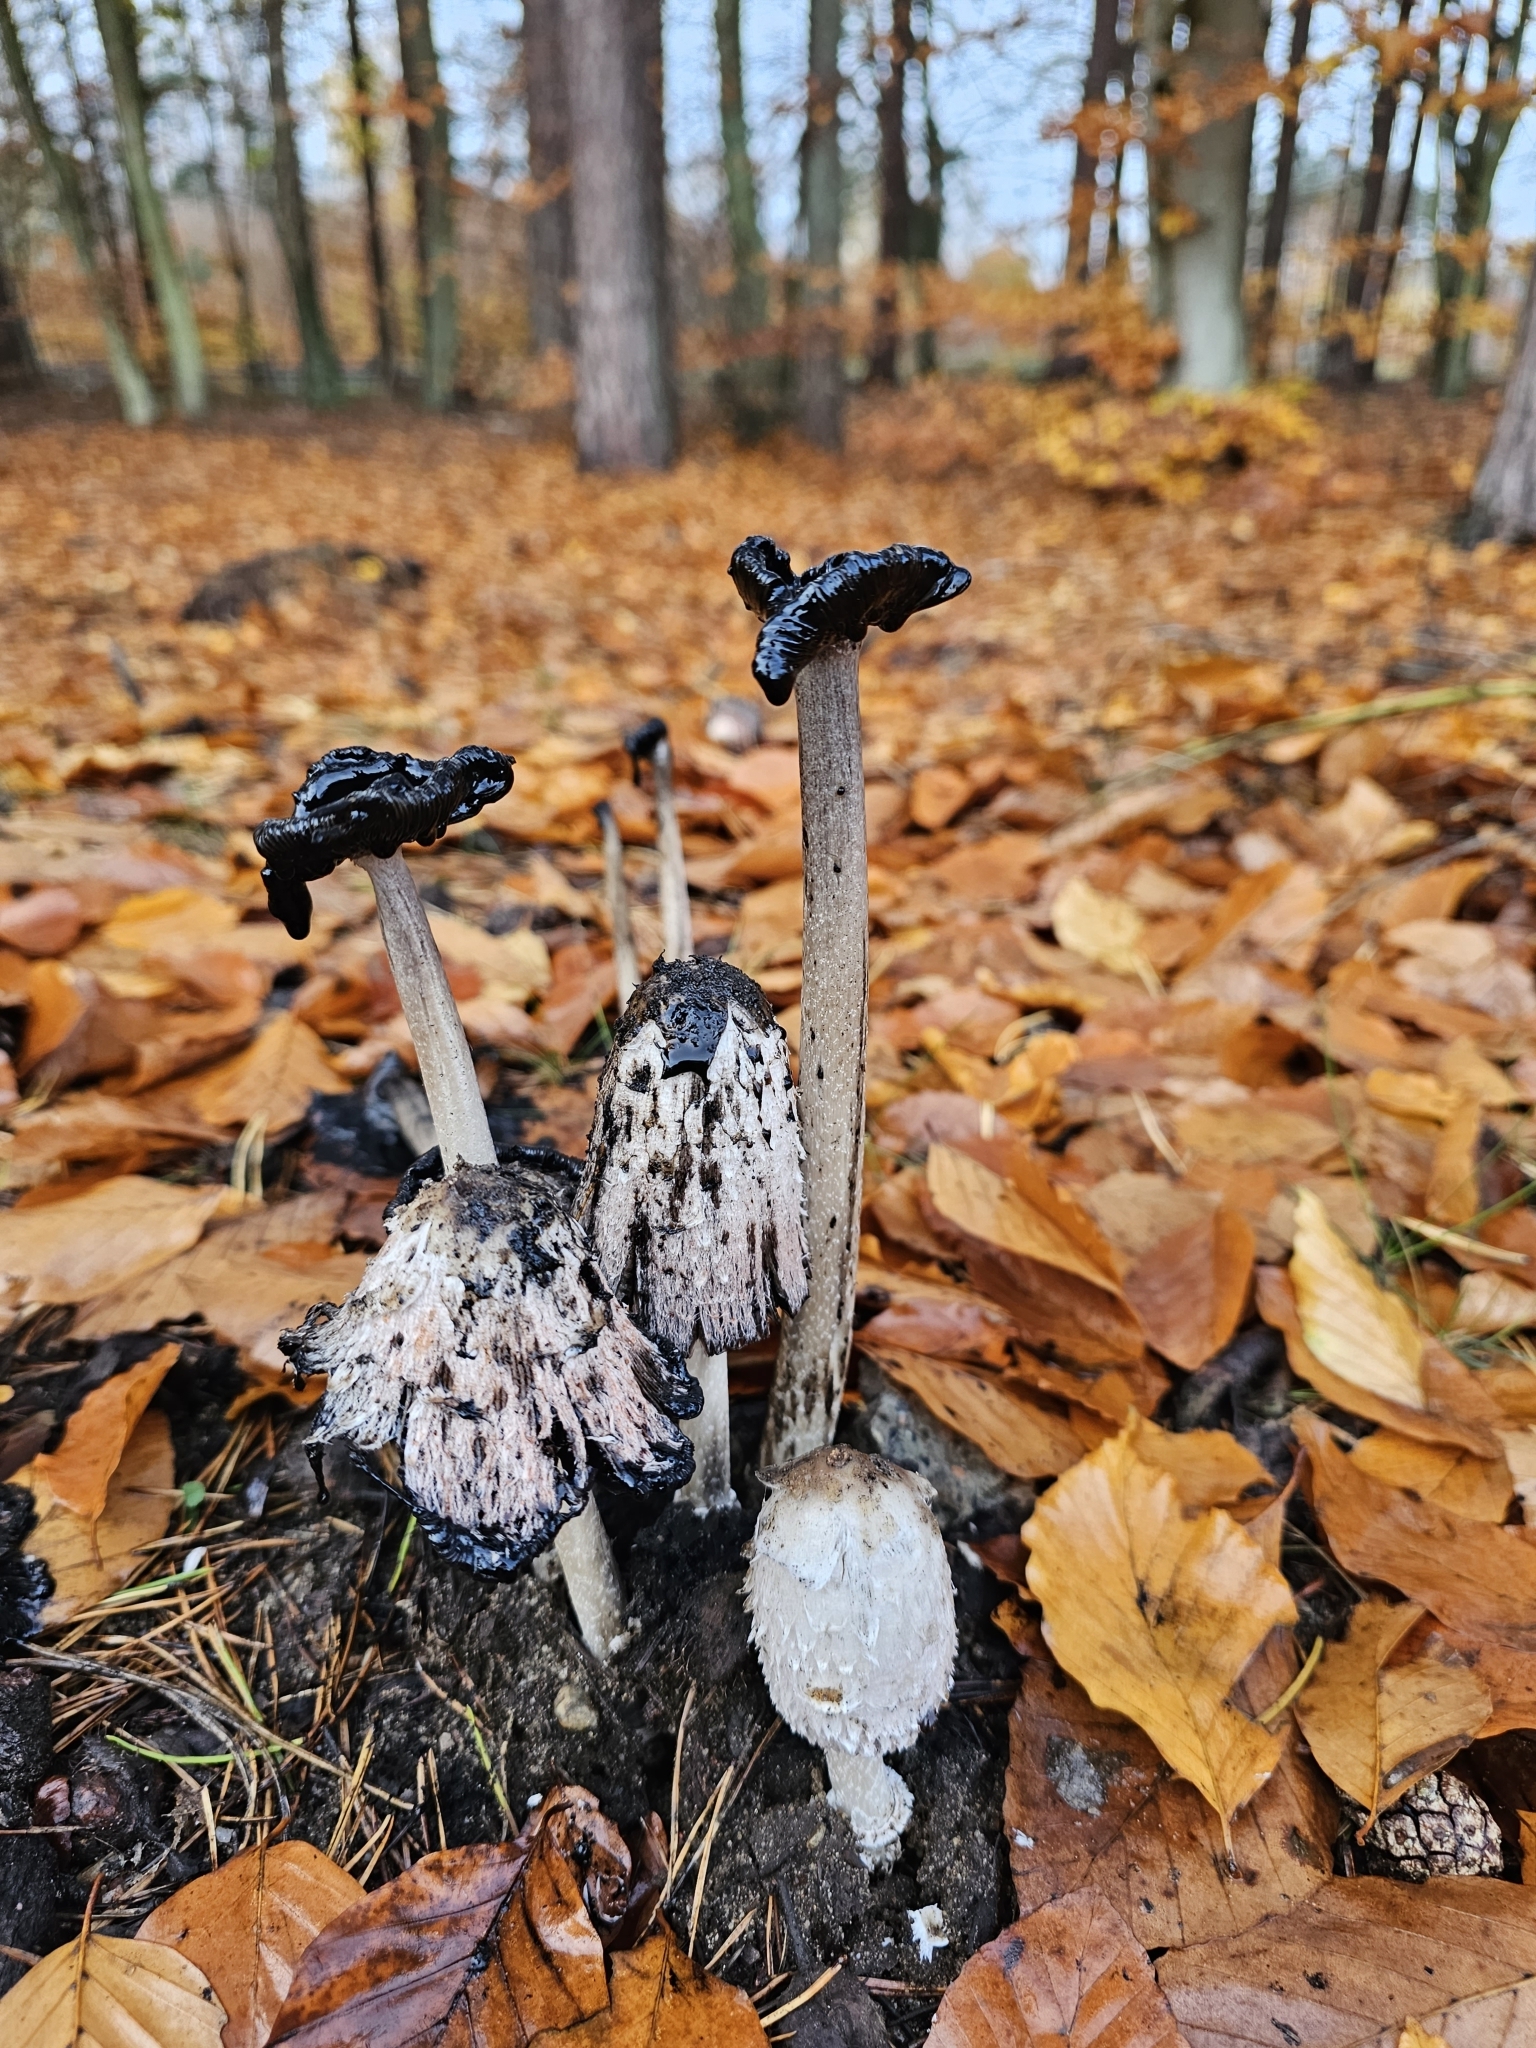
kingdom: Fungi
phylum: Basidiomycota
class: Agaricomycetes
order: Agaricales
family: Agaricaceae
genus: Coprinus
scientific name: Coprinus comatus
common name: Lawyer's wig
